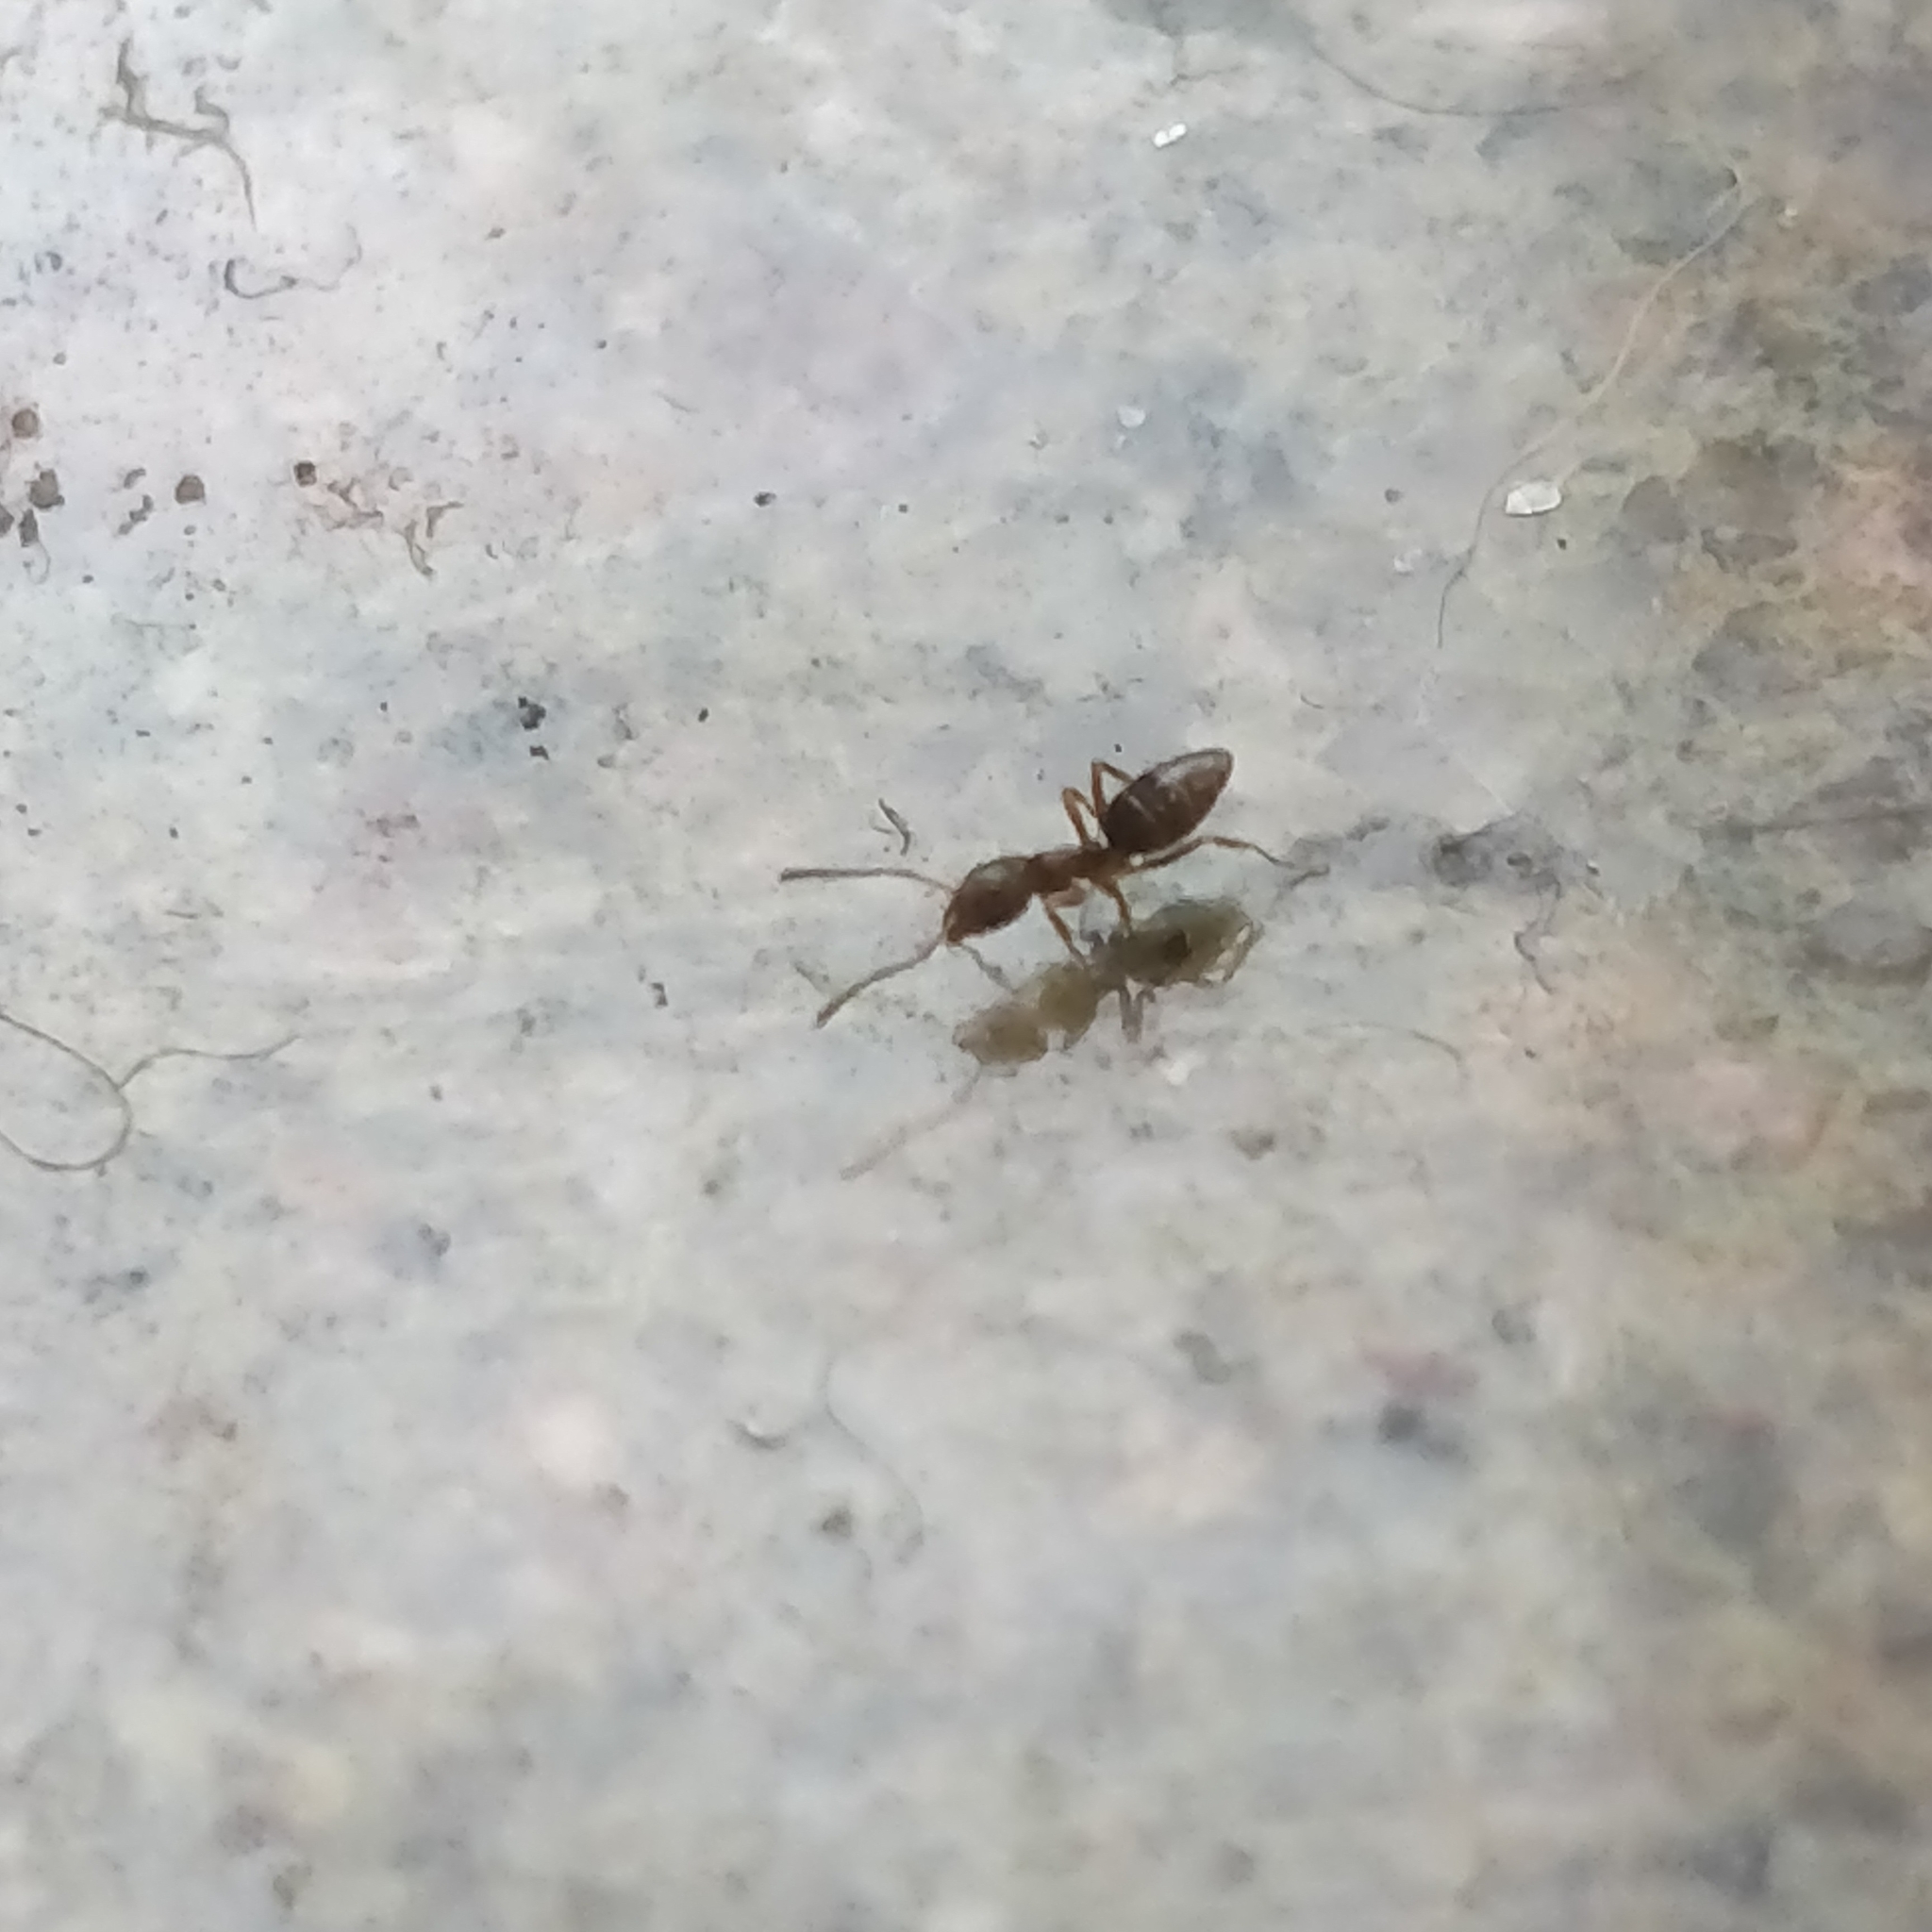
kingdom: Animalia
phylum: Arthropoda
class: Insecta
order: Hymenoptera
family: Formicidae
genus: Tapinoma
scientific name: Tapinoma sessile
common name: Odorous house ant
